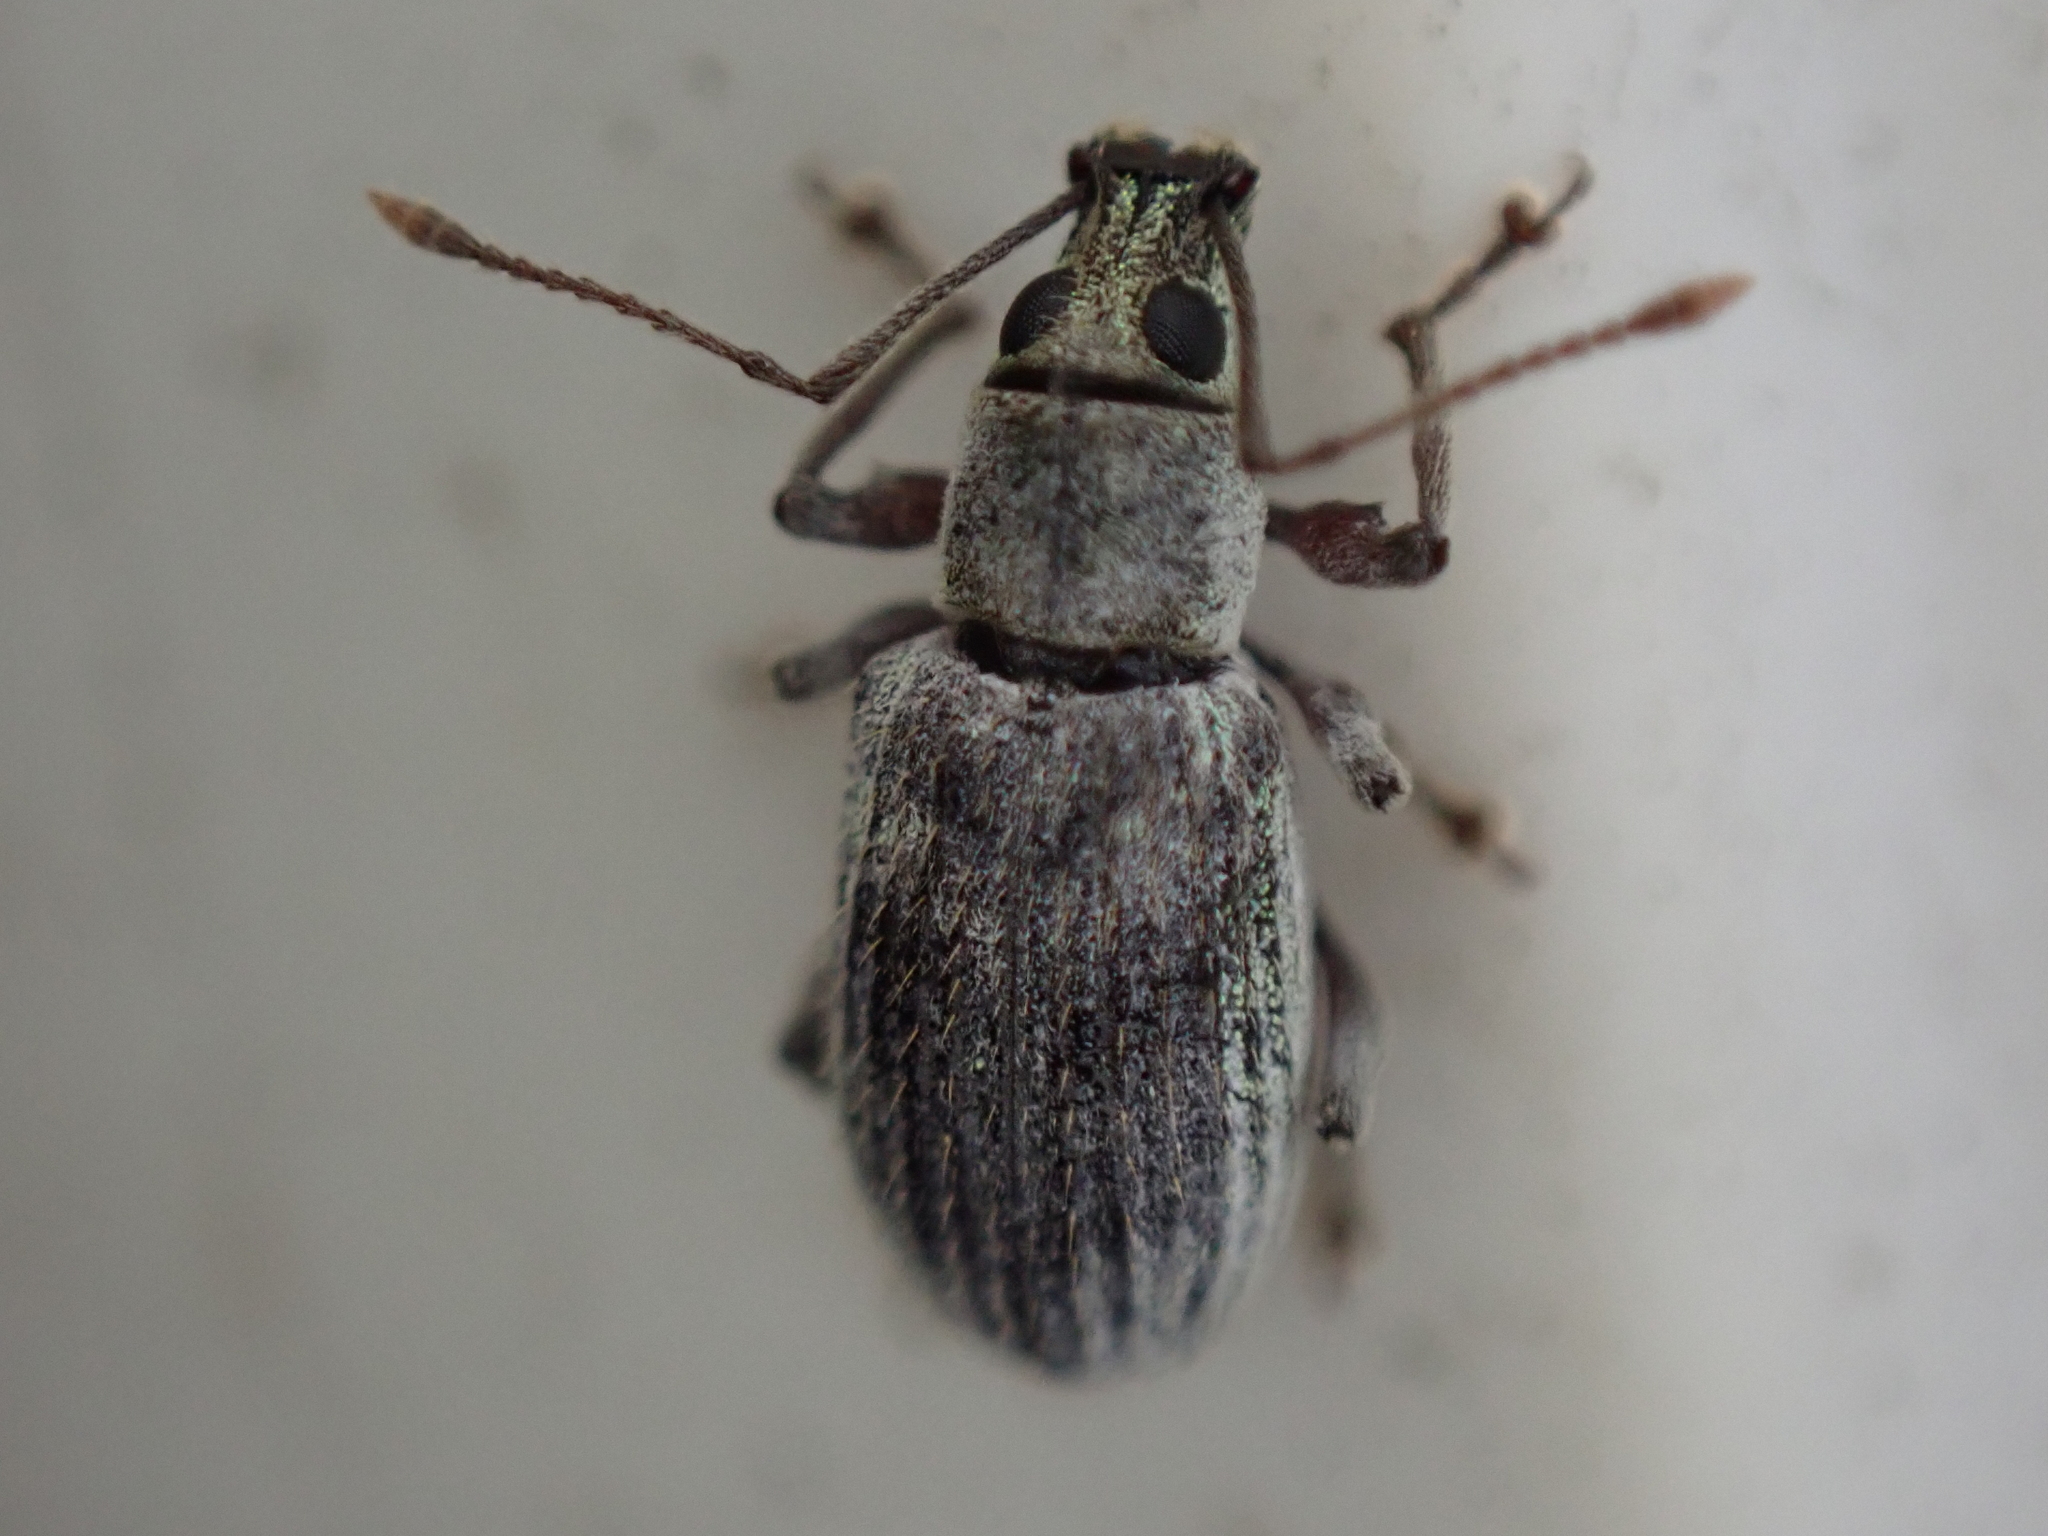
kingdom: Animalia
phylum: Arthropoda
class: Insecta
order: Coleoptera
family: Curculionidae
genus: Cyrtepistomus
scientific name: Cyrtepistomus castaneus
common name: Weevil
